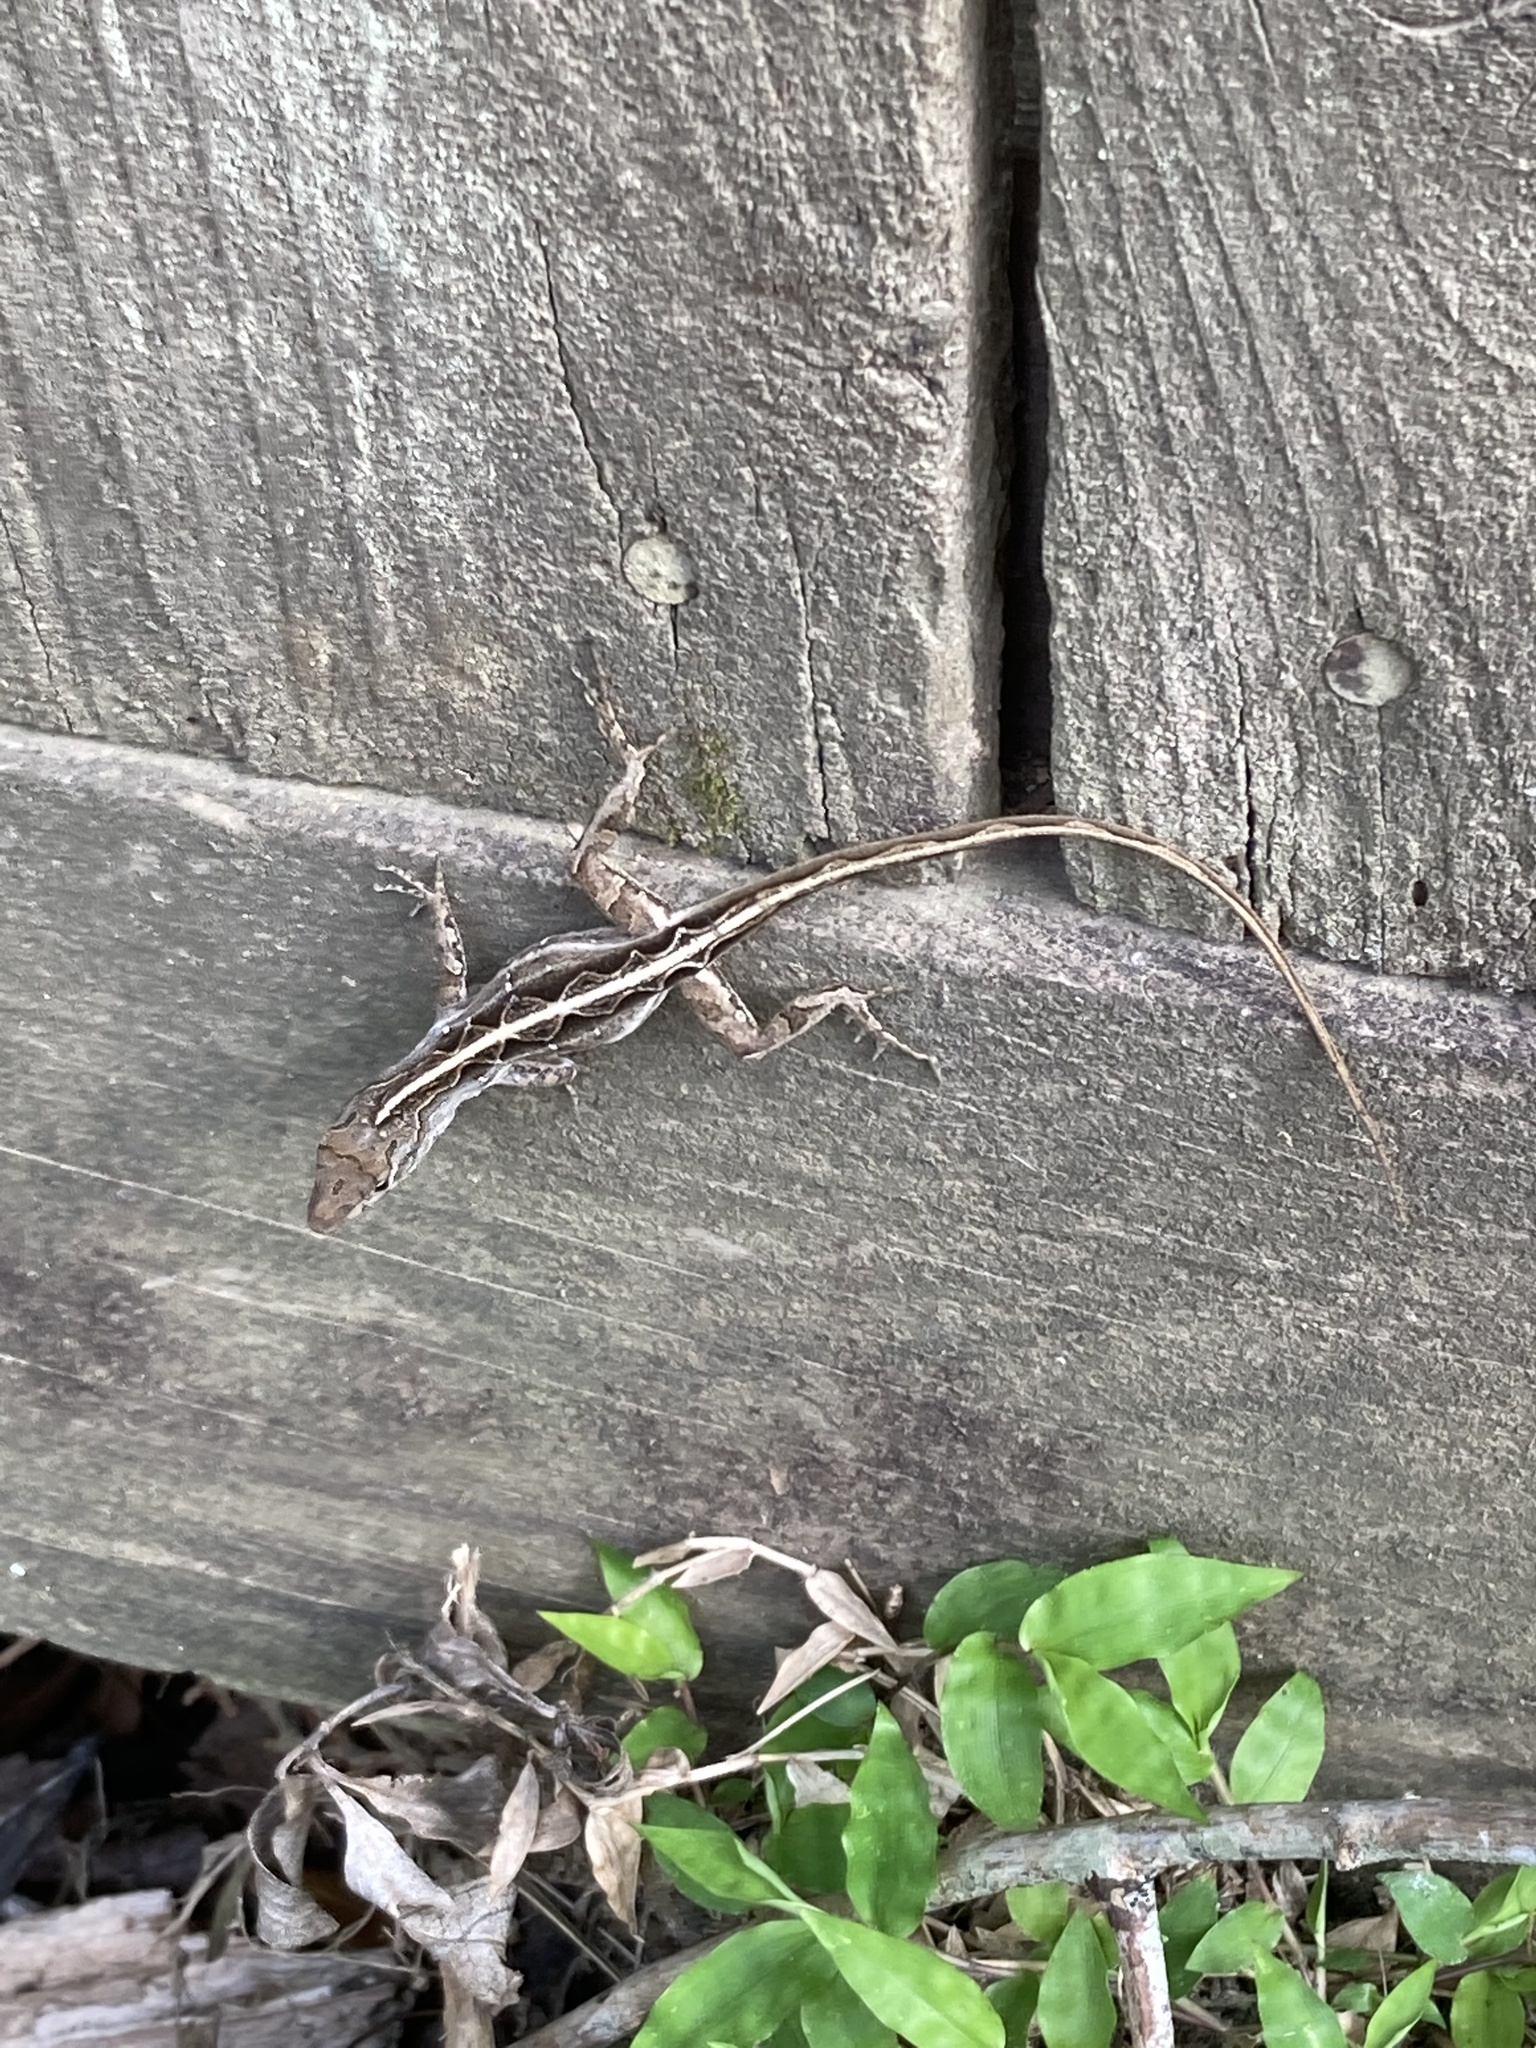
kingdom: Animalia
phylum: Chordata
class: Squamata
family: Dactyloidae
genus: Anolis
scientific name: Anolis sagrei
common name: Brown anole
